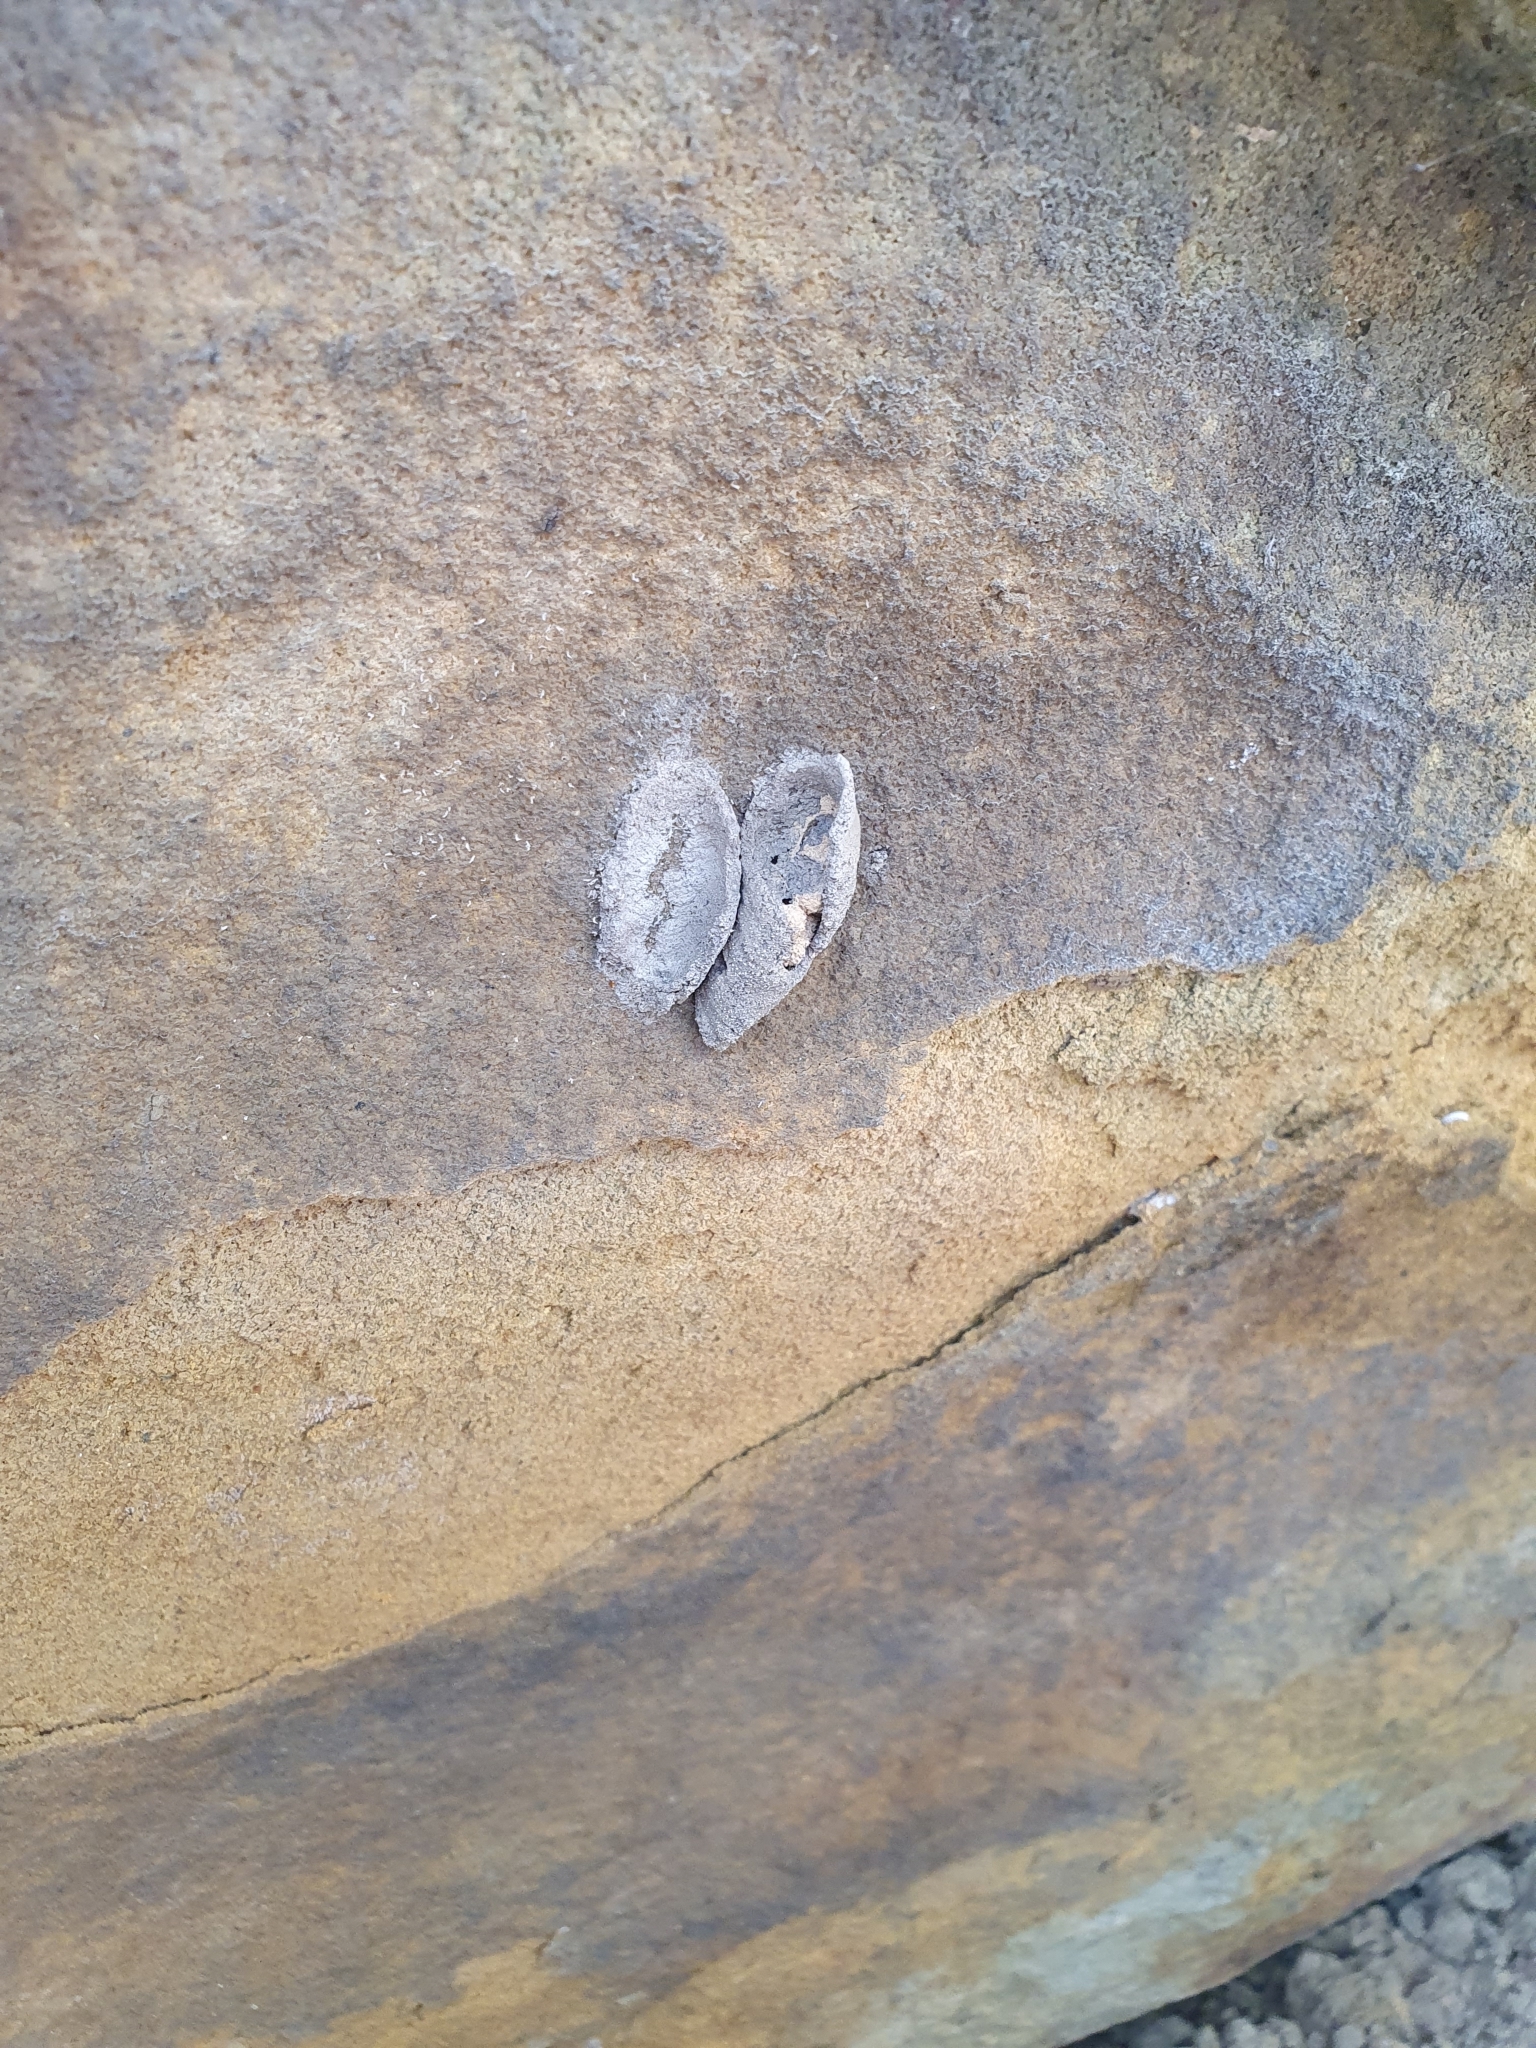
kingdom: Animalia
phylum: Arthropoda
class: Insecta
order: Hymenoptera
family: Eumenidae
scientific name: Eumenidae
